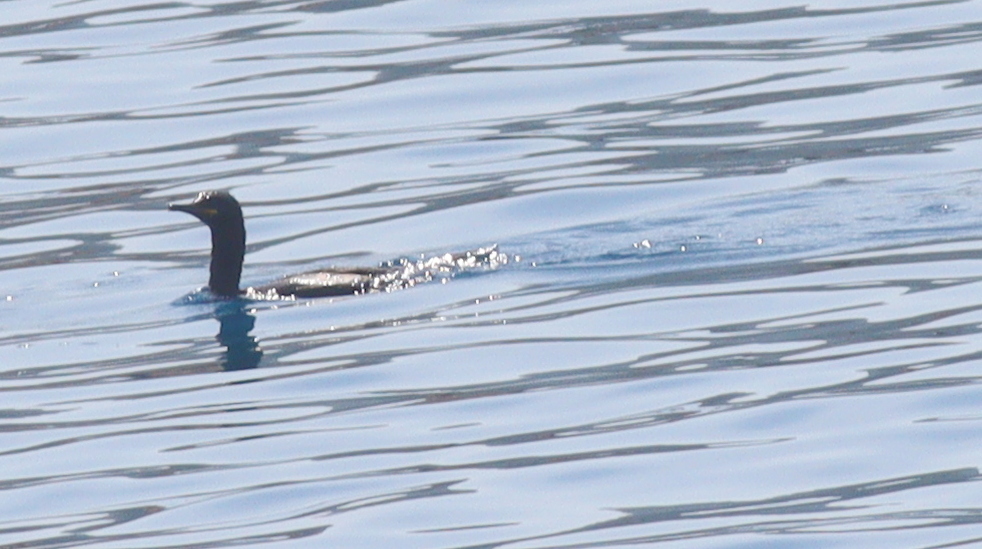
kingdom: Animalia
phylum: Chordata
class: Aves
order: Suliformes
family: Phalacrocoracidae
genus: Phalacrocorax
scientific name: Phalacrocorax aristotelis
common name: European shag
